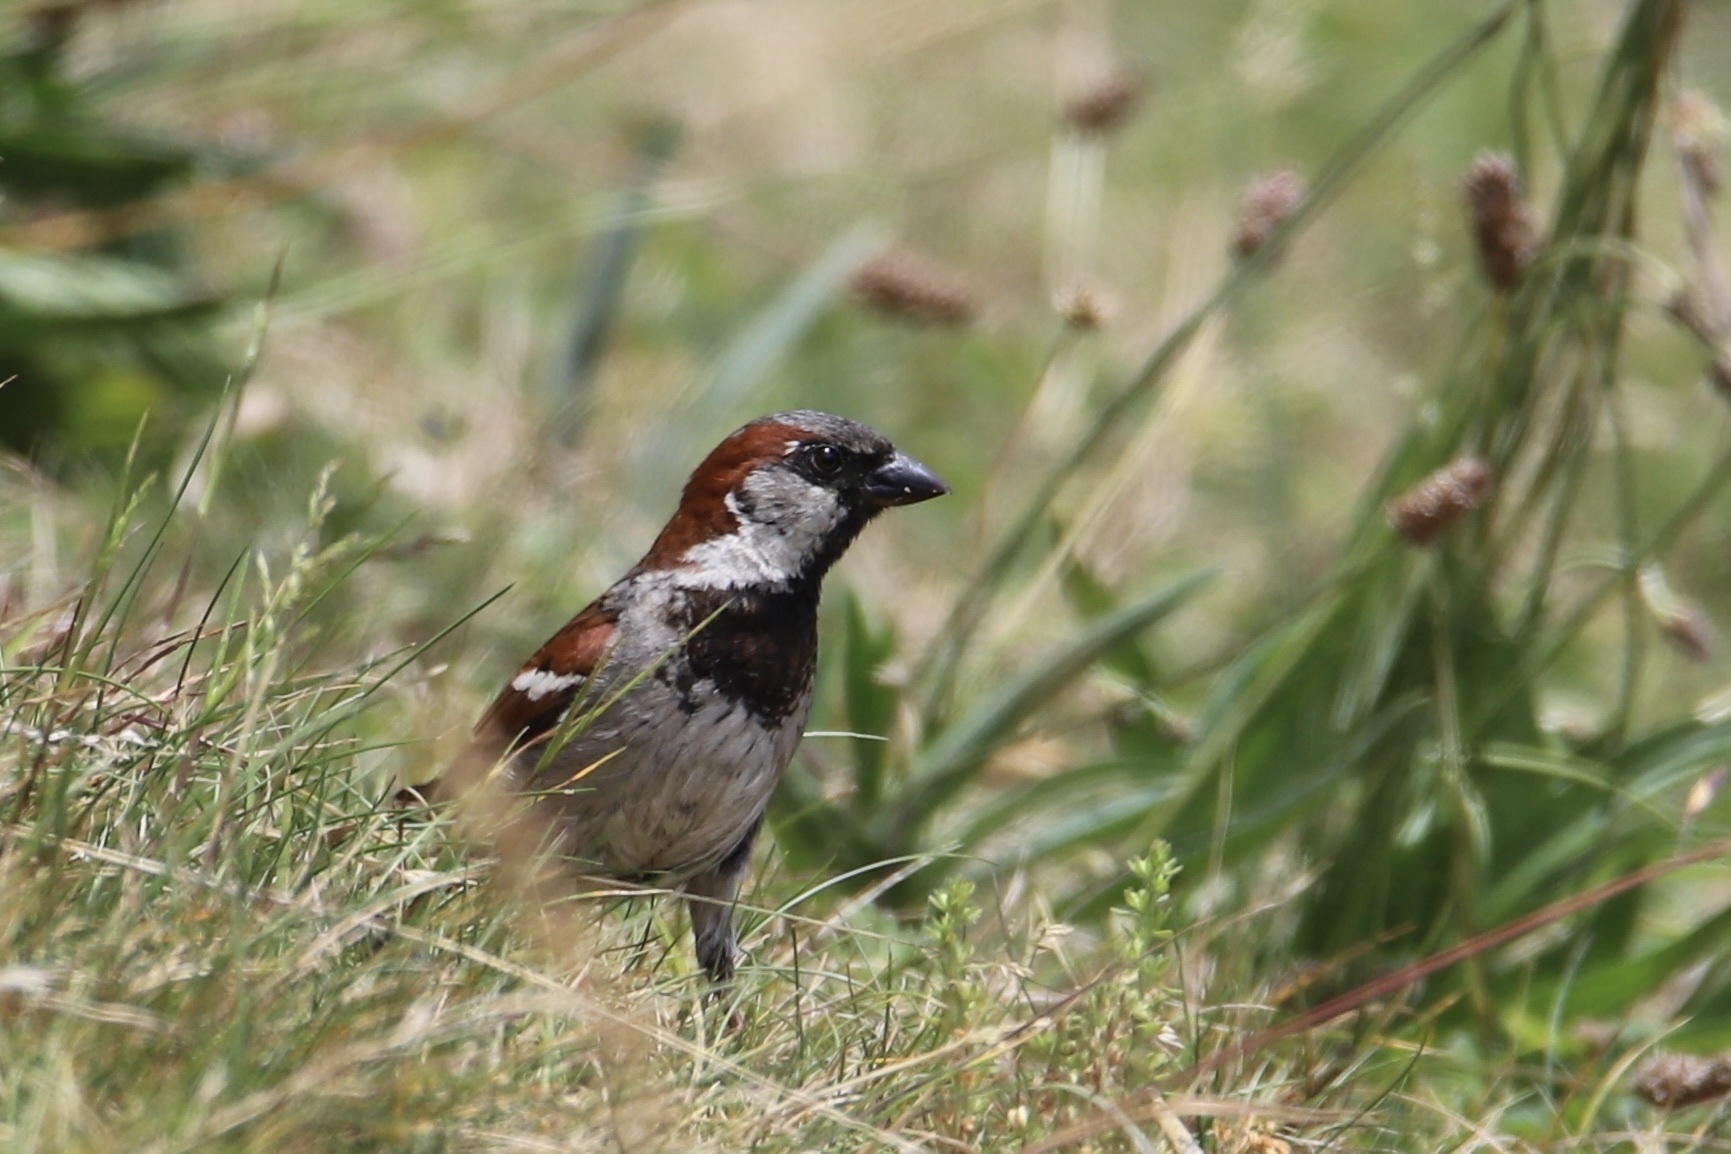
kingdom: Animalia
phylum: Chordata
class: Aves
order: Passeriformes
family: Passeridae
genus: Passer
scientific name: Passer domesticus
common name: House sparrow
